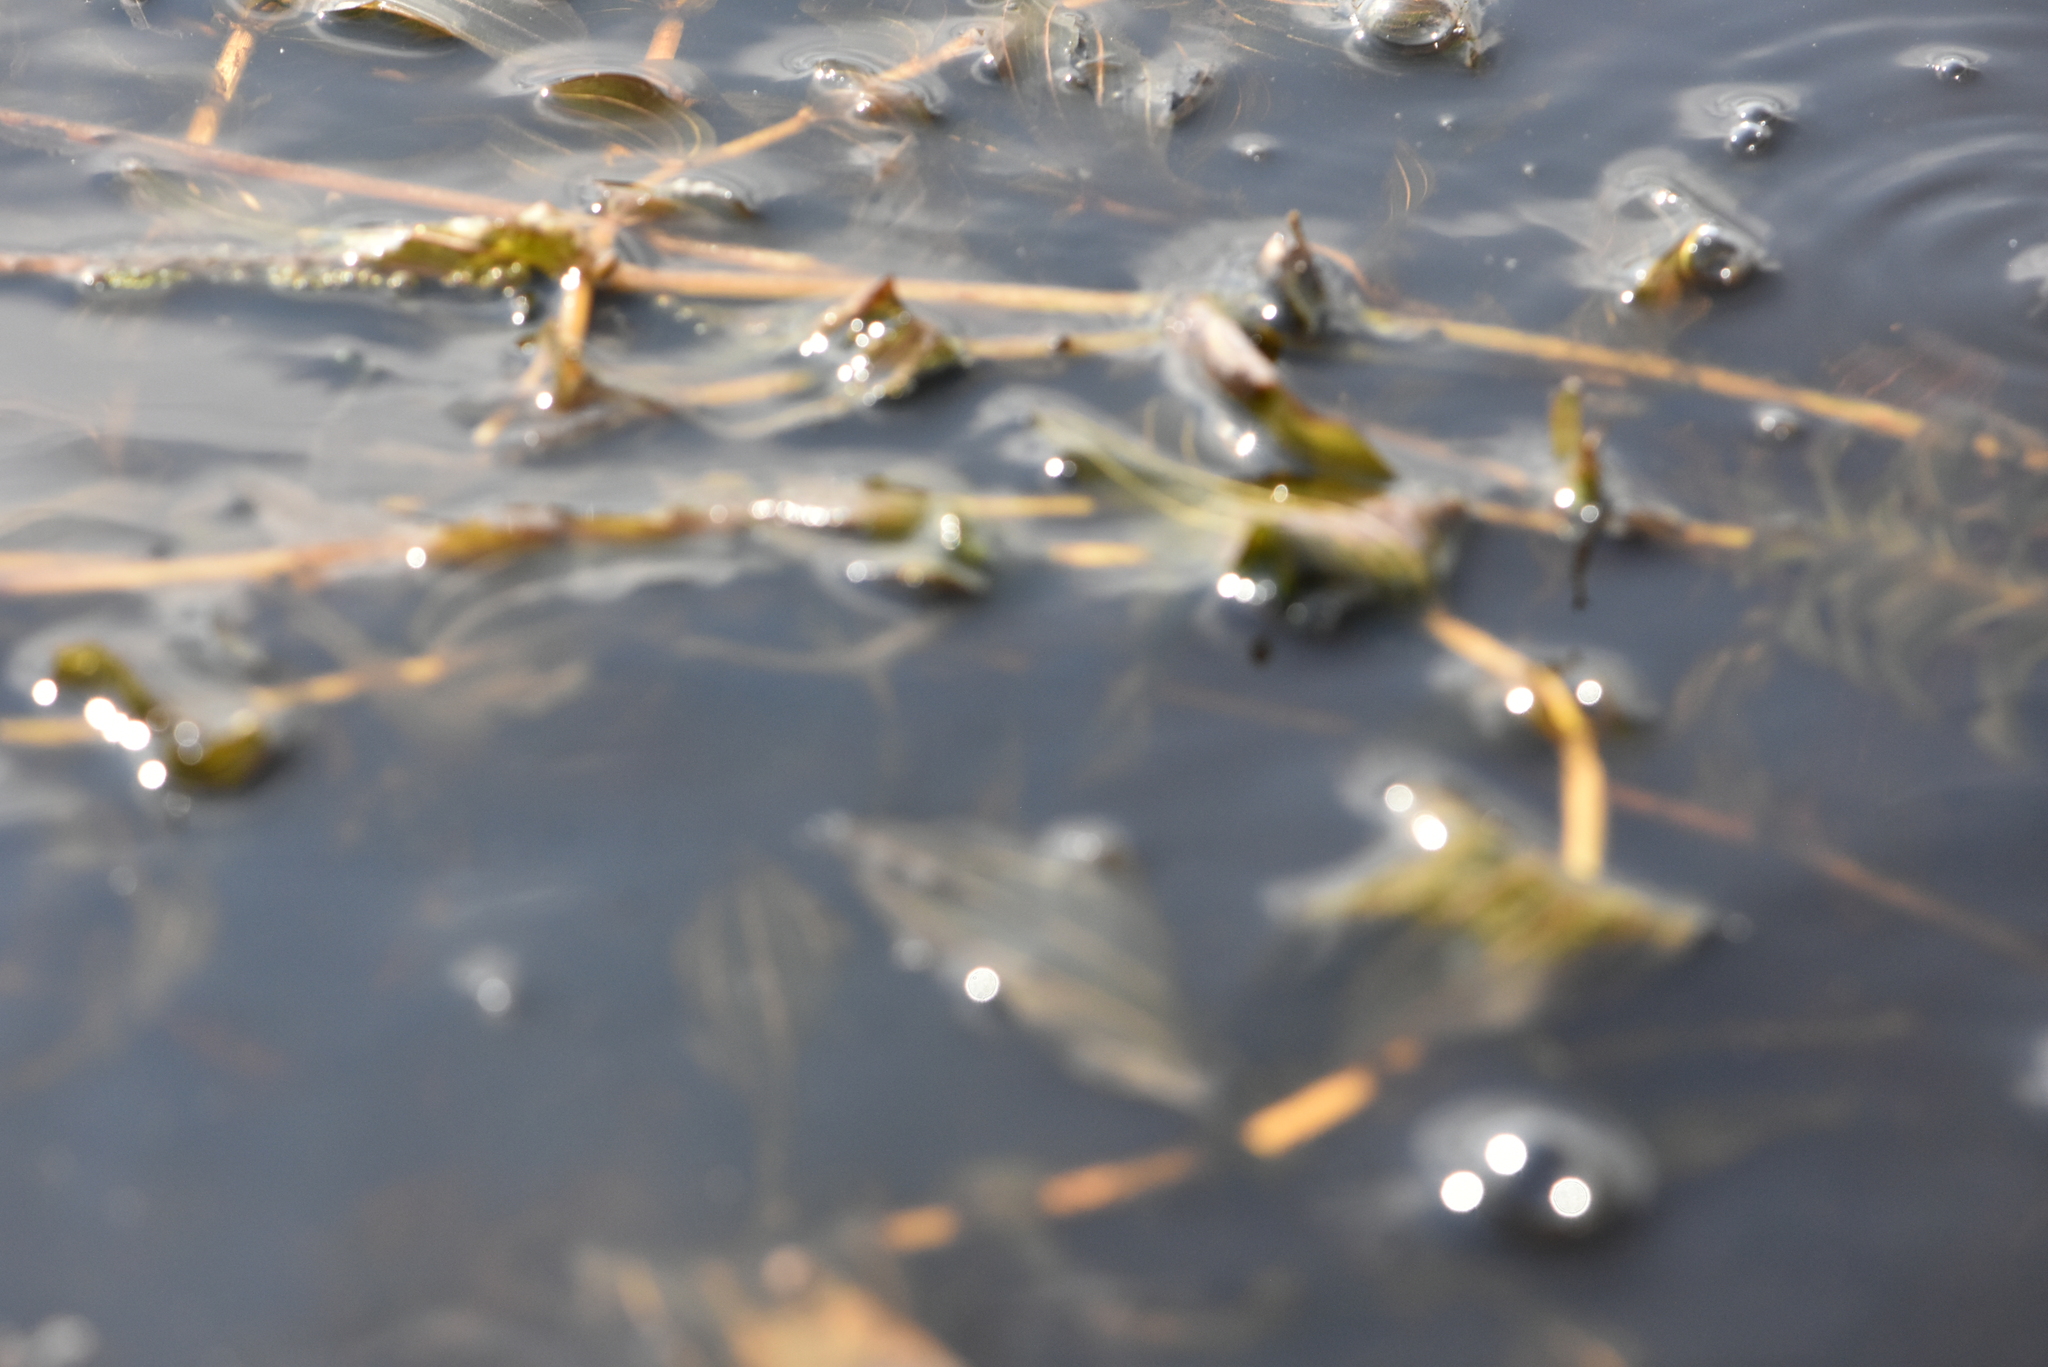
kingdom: Plantae
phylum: Tracheophyta
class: Liliopsida
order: Alismatales
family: Potamogetonaceae
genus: Potamogeton
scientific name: Potamogeton perfoliatus
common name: Perfoliate pondweed
